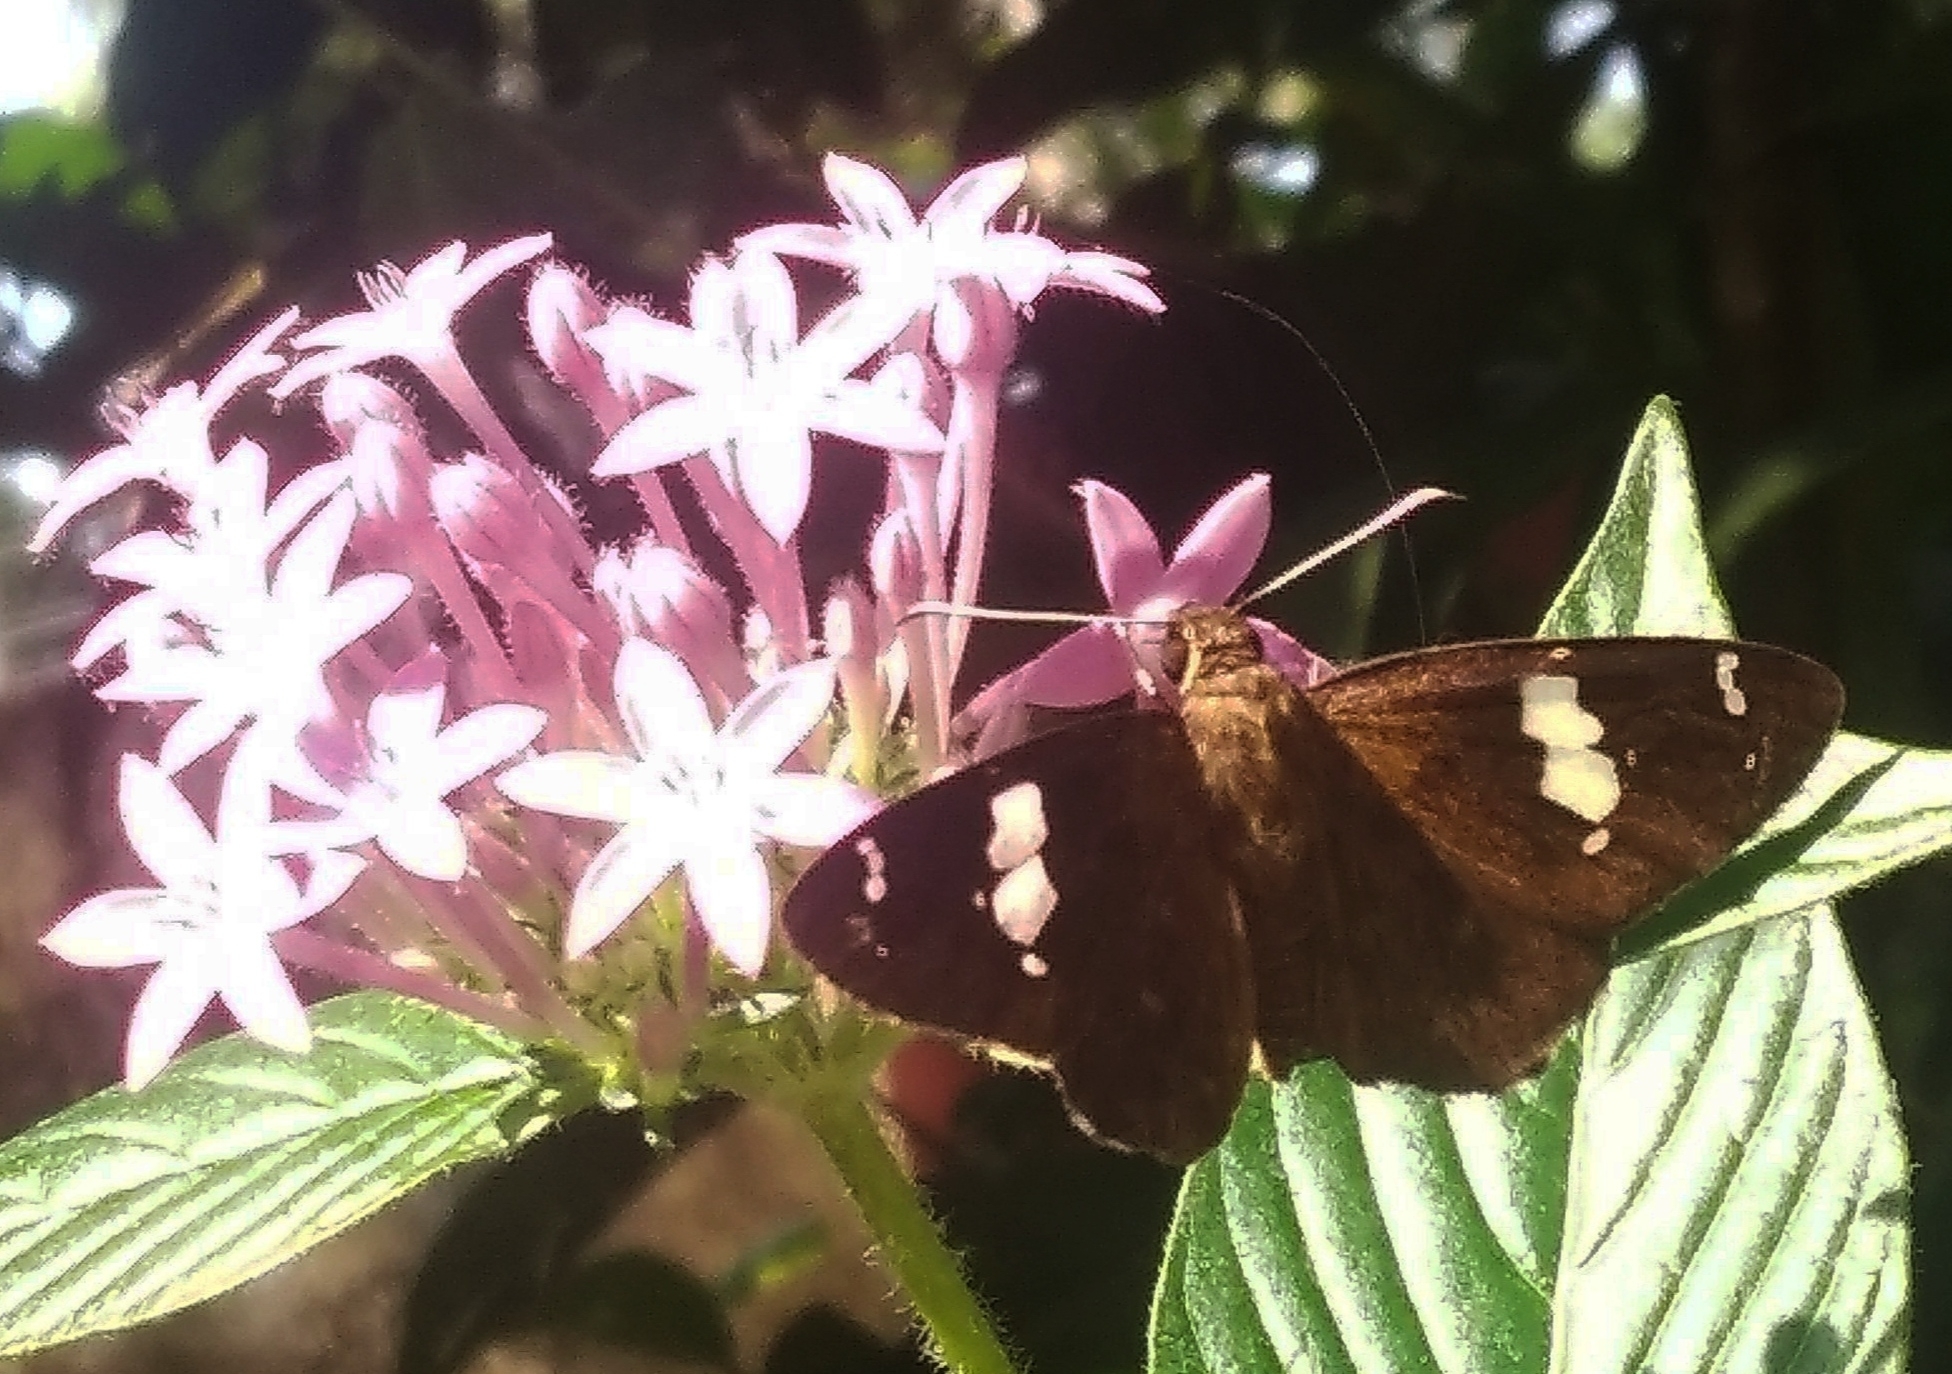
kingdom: Animalia
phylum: Arthropoda
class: Insecta
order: Lepidoptera
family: Hesperiidae
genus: Celaenorrhinus
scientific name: Celaenorrhinus leucocera
